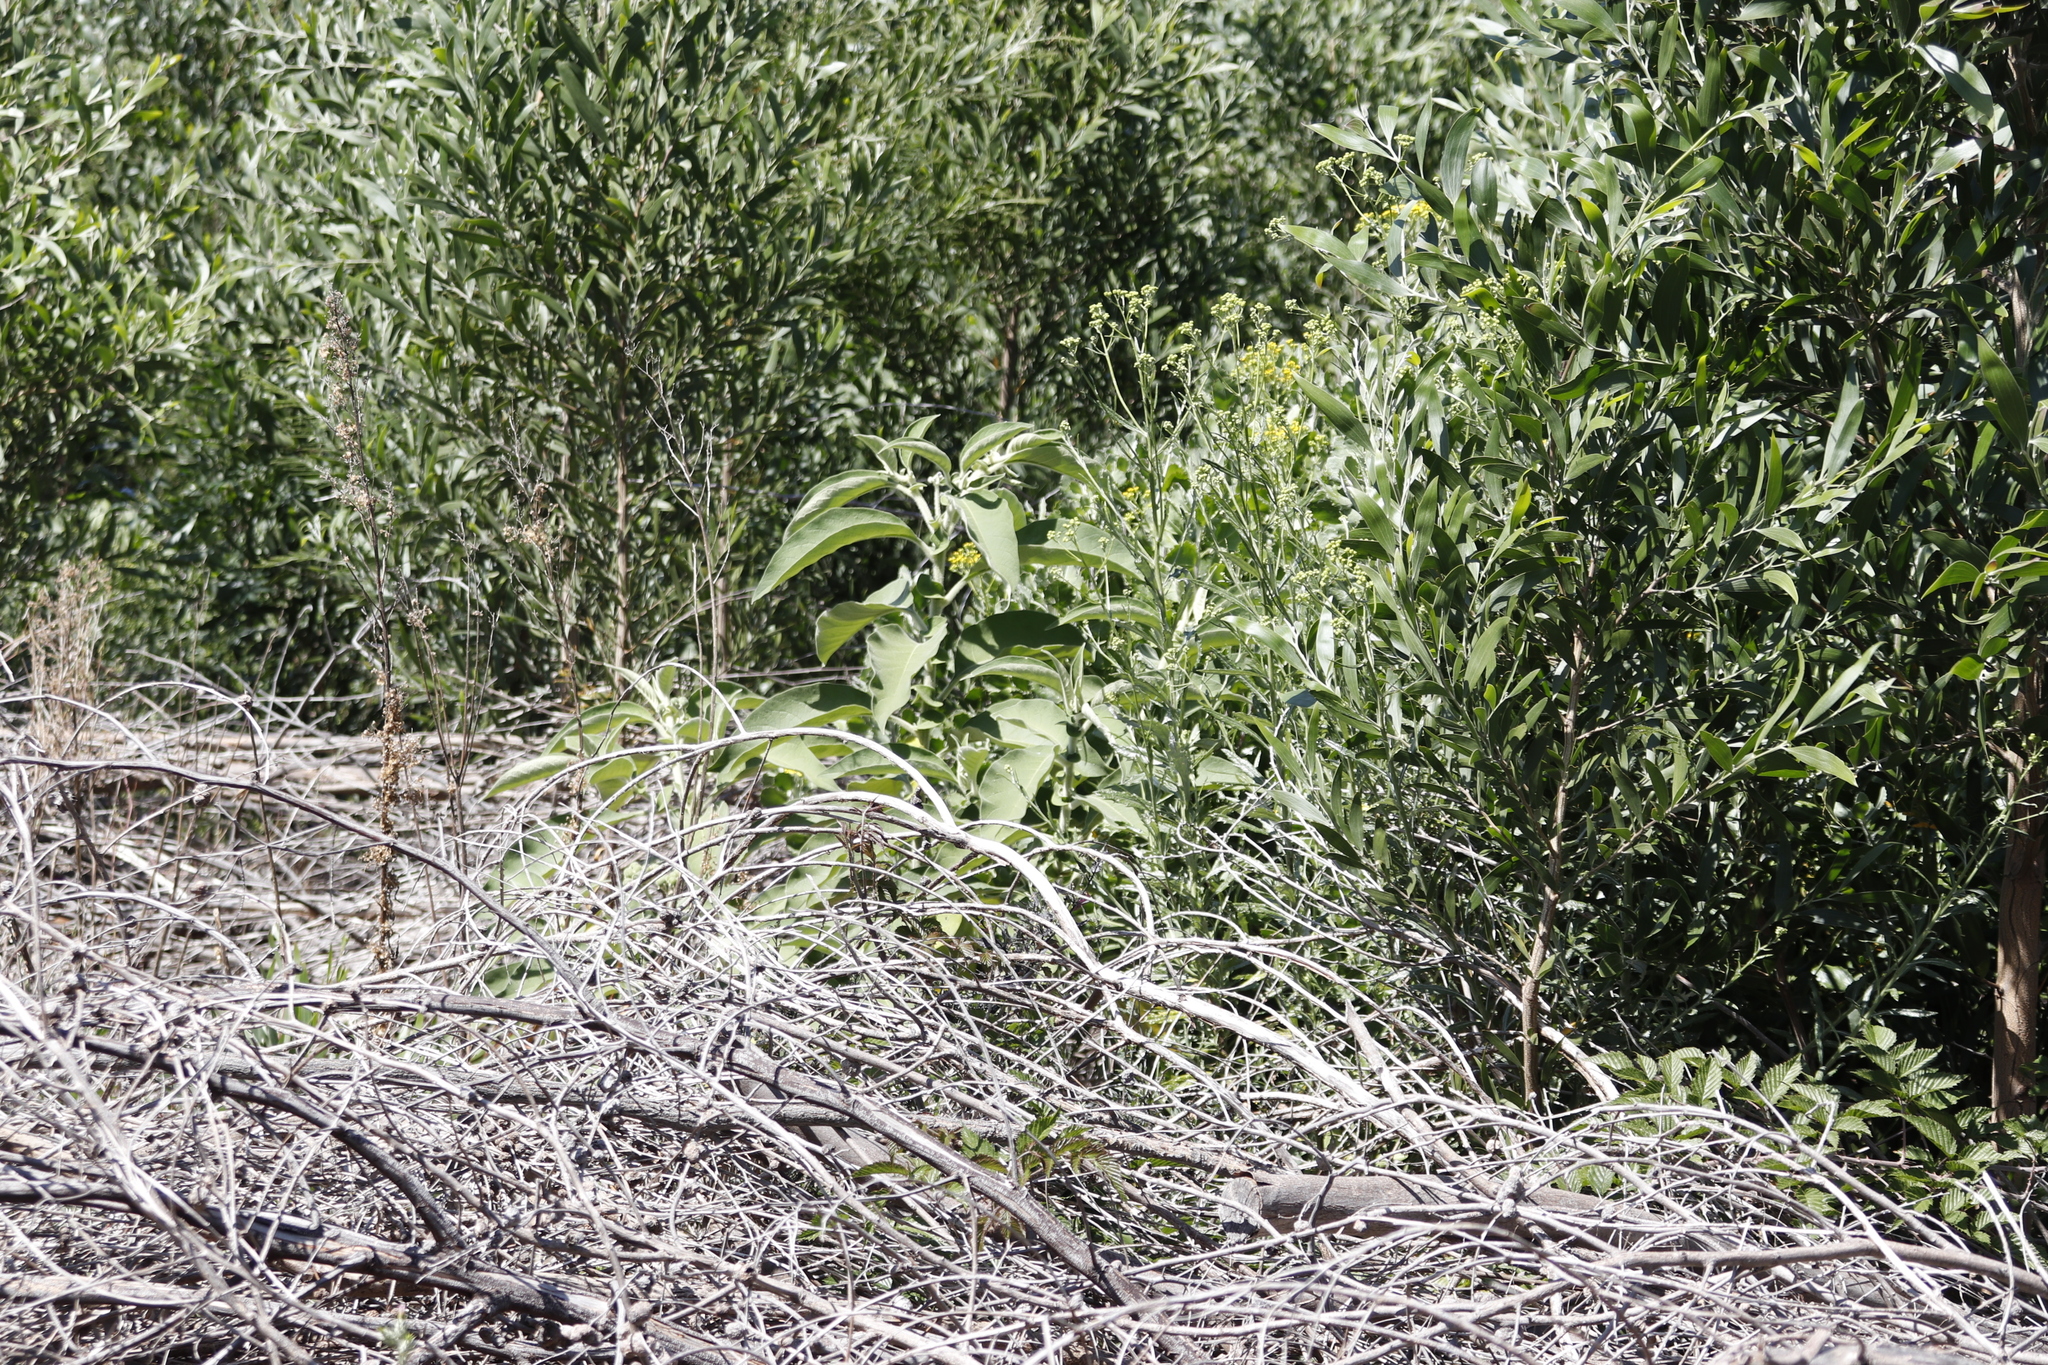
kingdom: Plantae
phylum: Tracheophyta
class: Magnoliopsida
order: Solanales
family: Solanaceae
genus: Solanum
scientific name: Solanum mauritianum
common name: Earleaf nightshade
